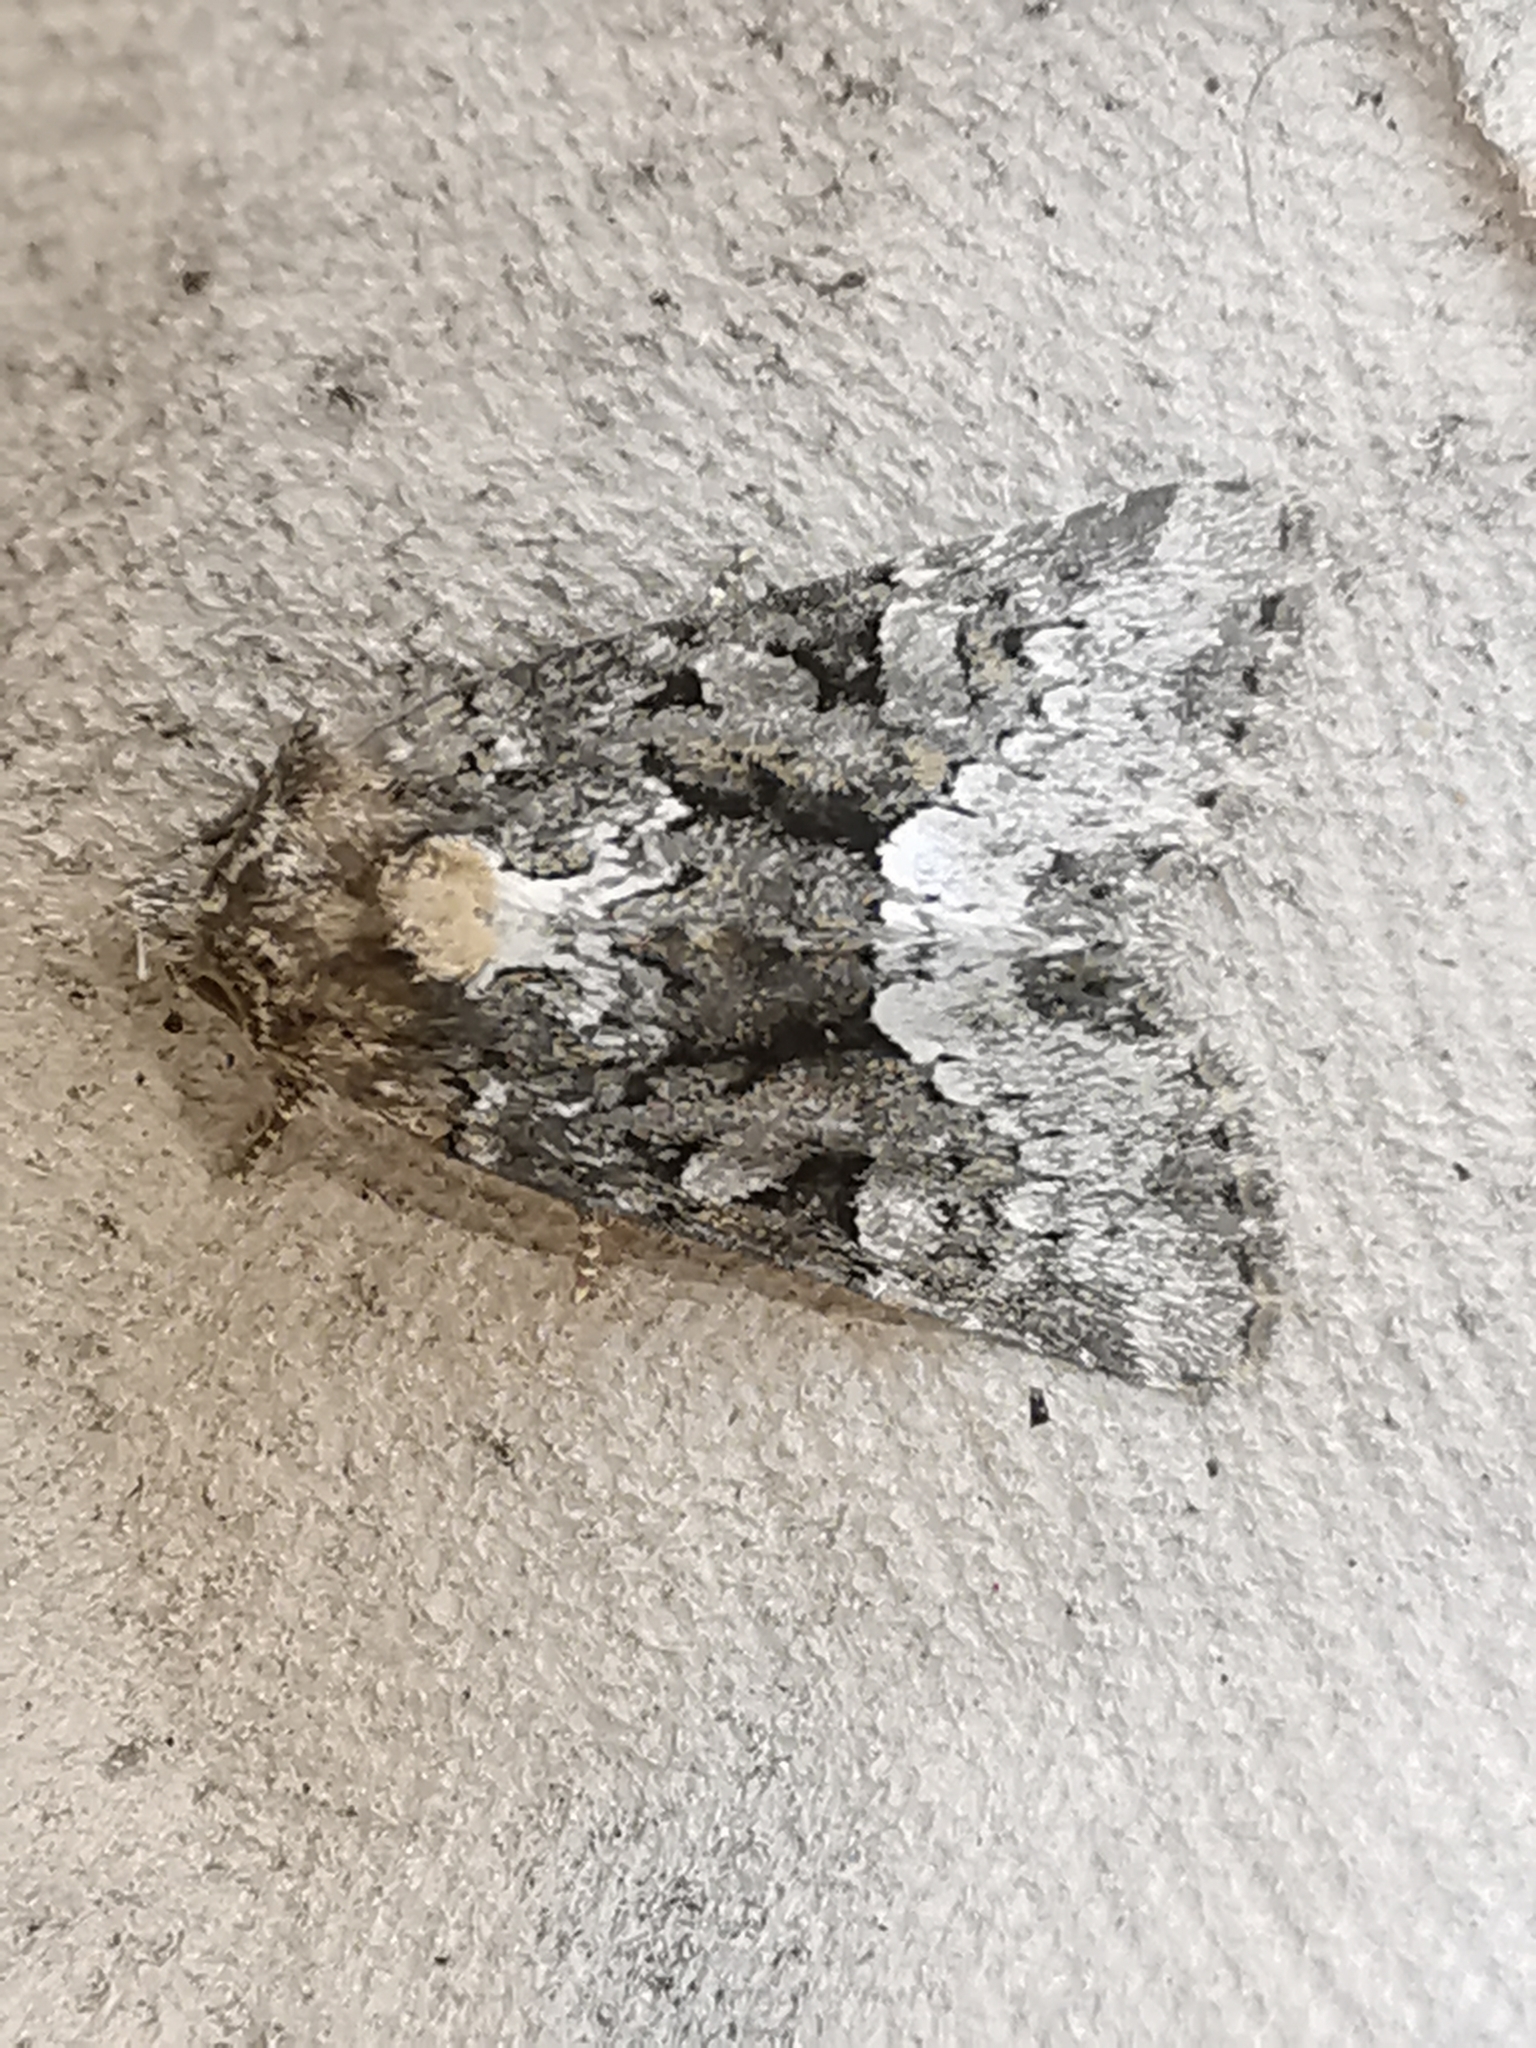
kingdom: Animalia
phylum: Arthropoda
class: Insecta
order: Lepidoptera
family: Noctuidae
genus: Oligia
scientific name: Oligia
